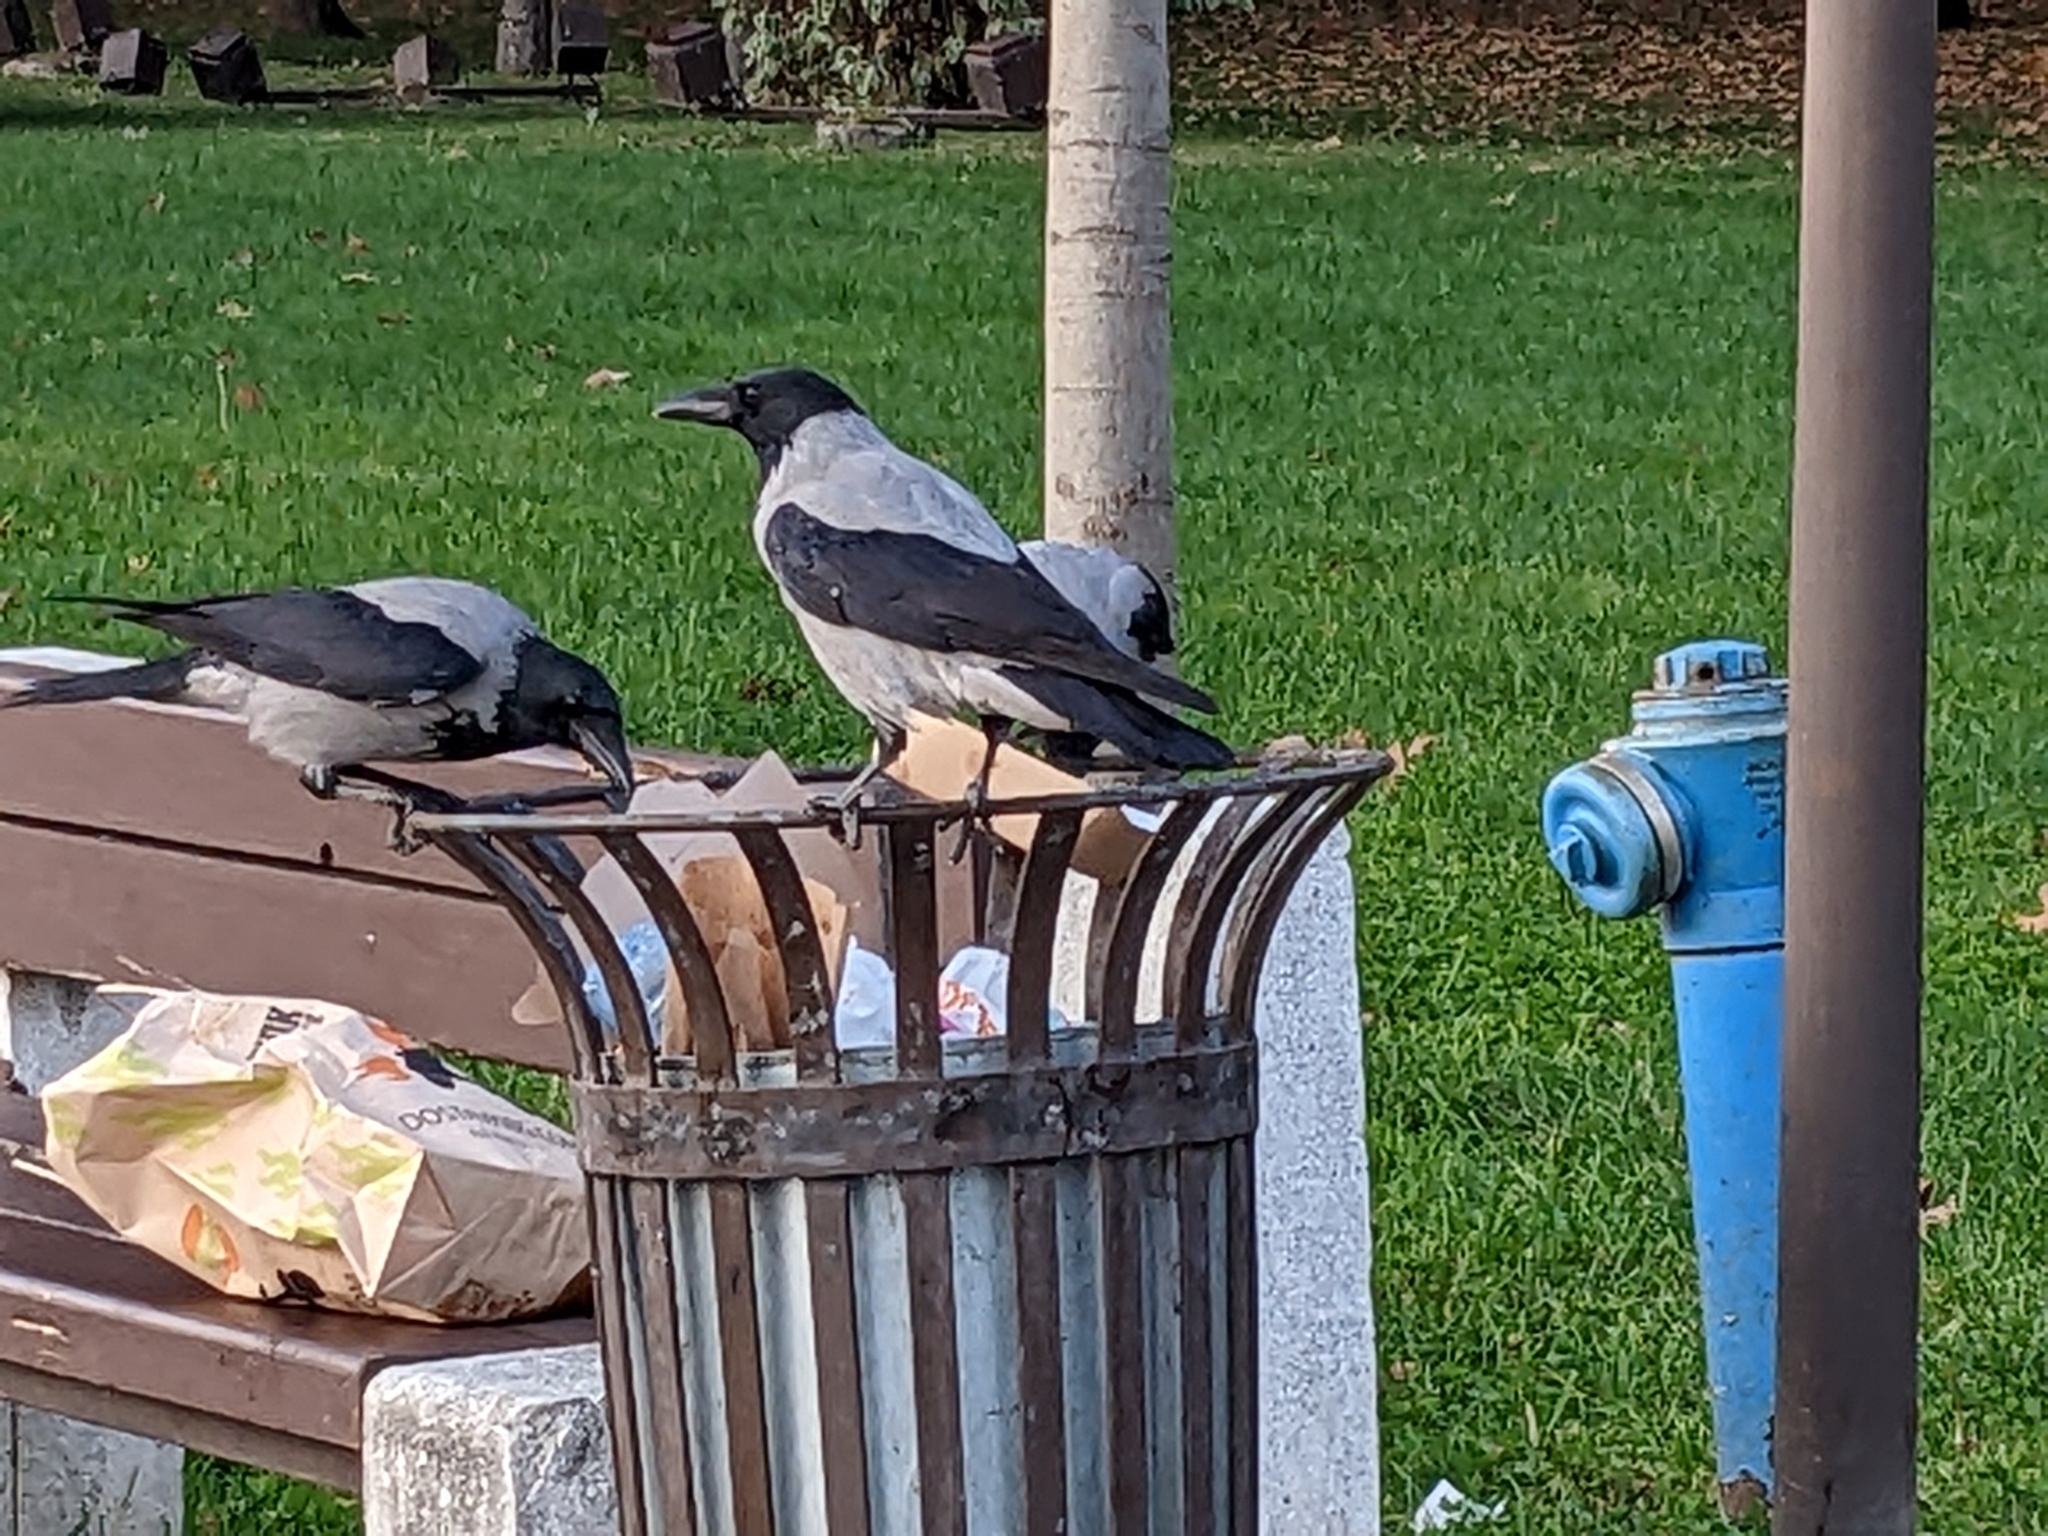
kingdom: Animalia
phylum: Chordata
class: Aves
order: Passeriformes
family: Corvidae
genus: Corvus
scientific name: Corvus cornix
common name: Hooded crow
